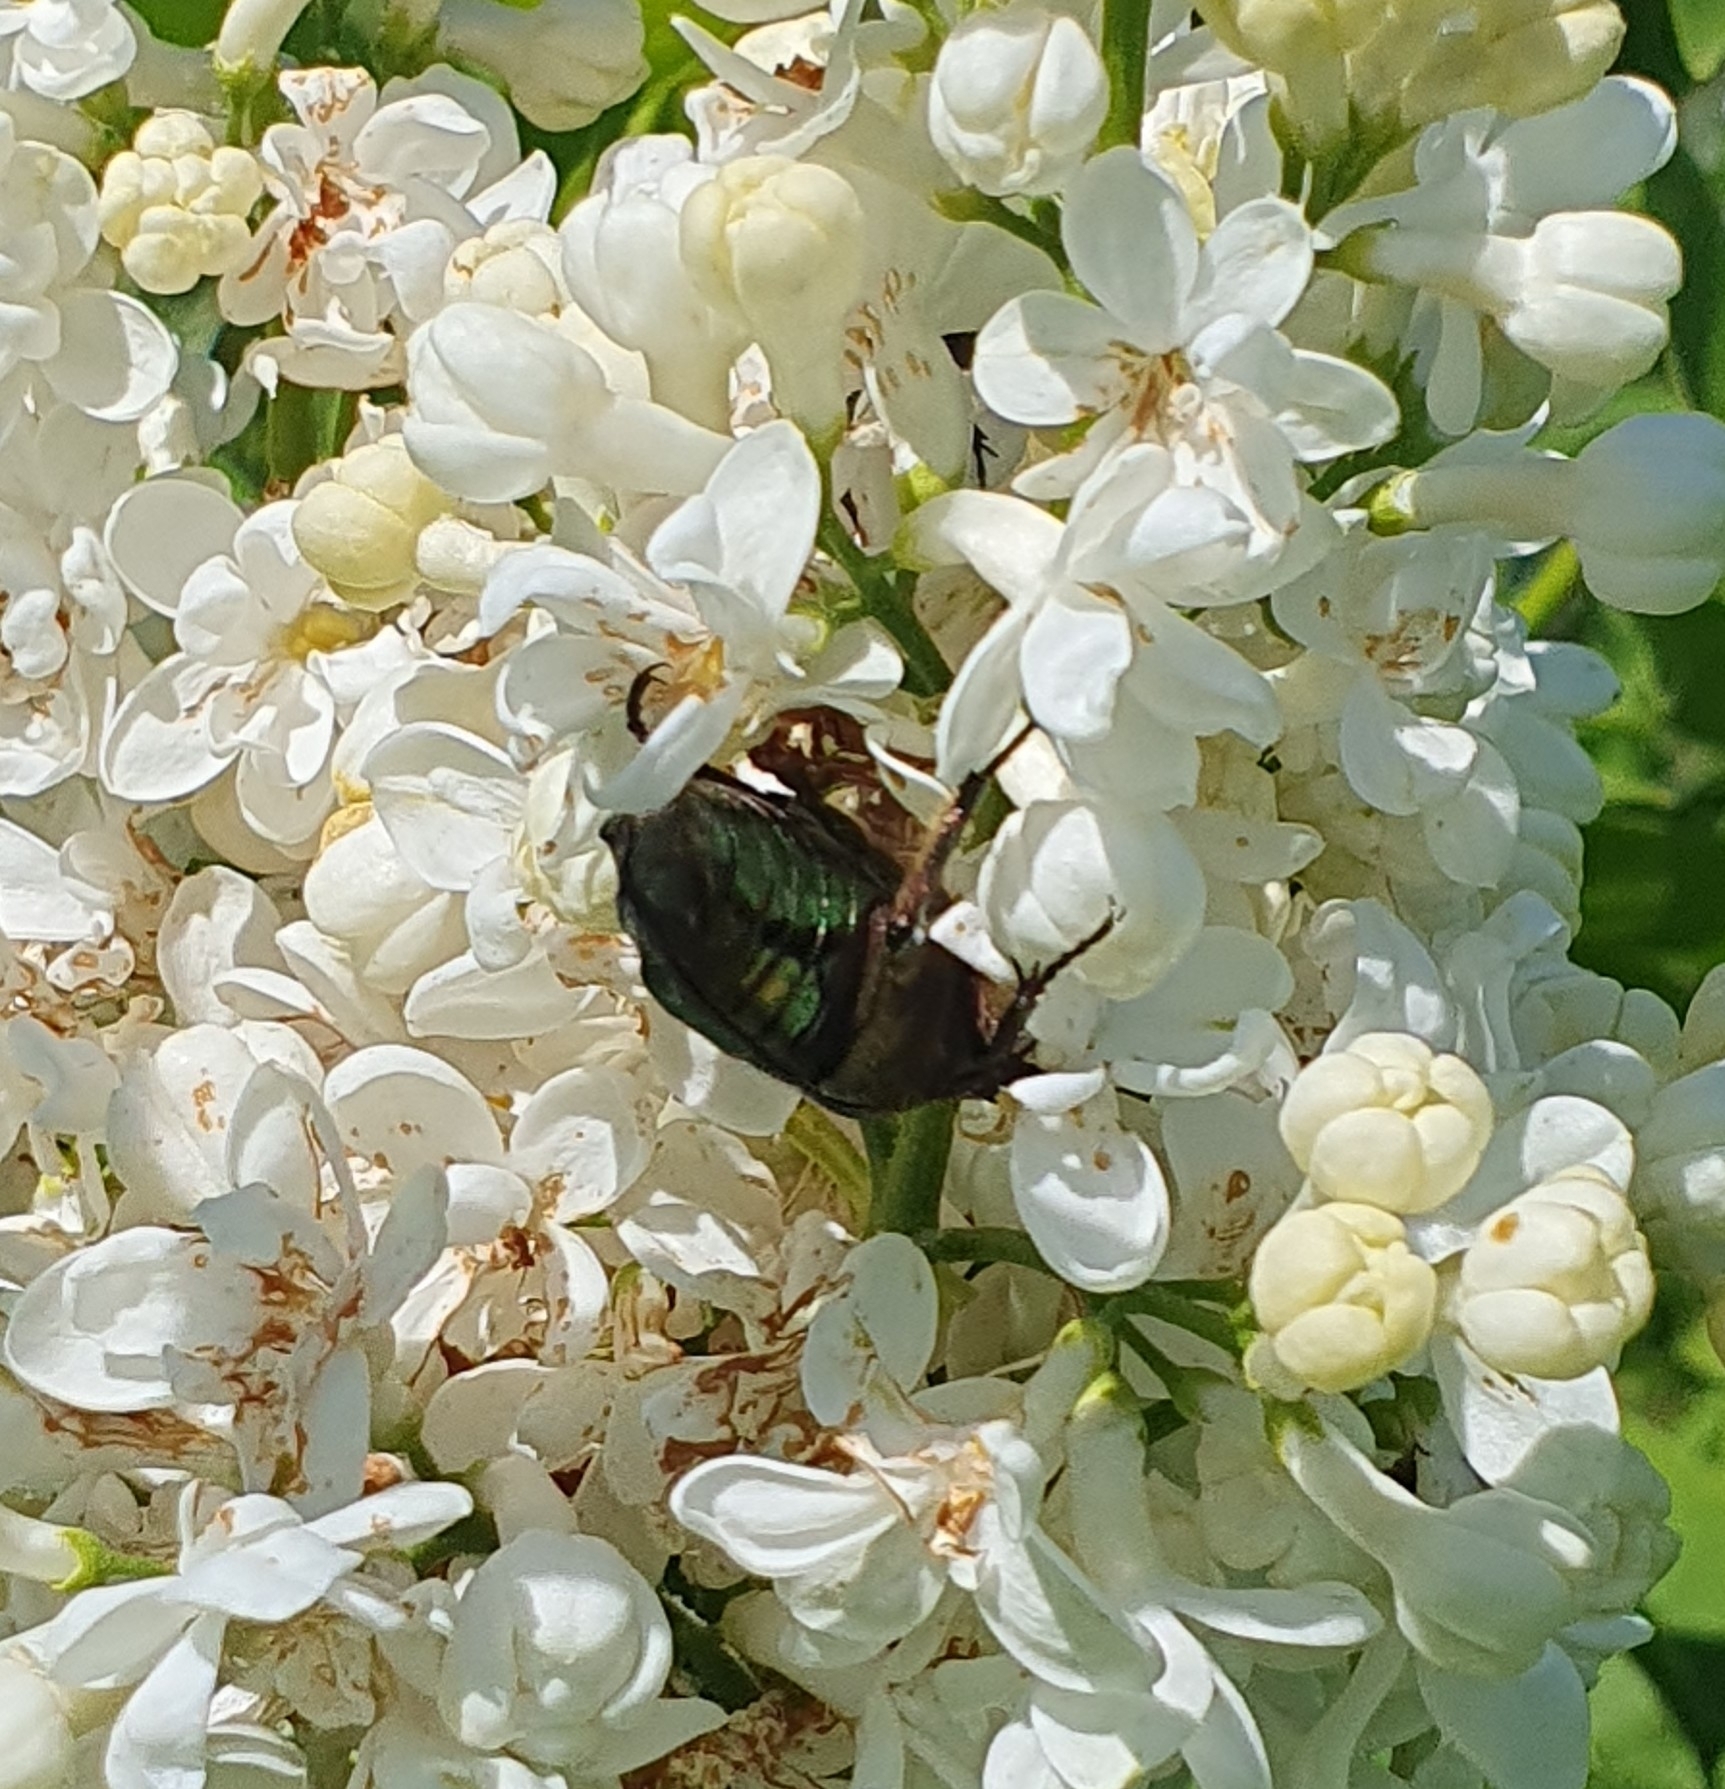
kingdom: Animalia
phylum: Arthropoda
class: Insecta
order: Coleoptera
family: Scarabaeidae
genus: Cetonia
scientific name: Cetonia aurata
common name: Rose chafer
